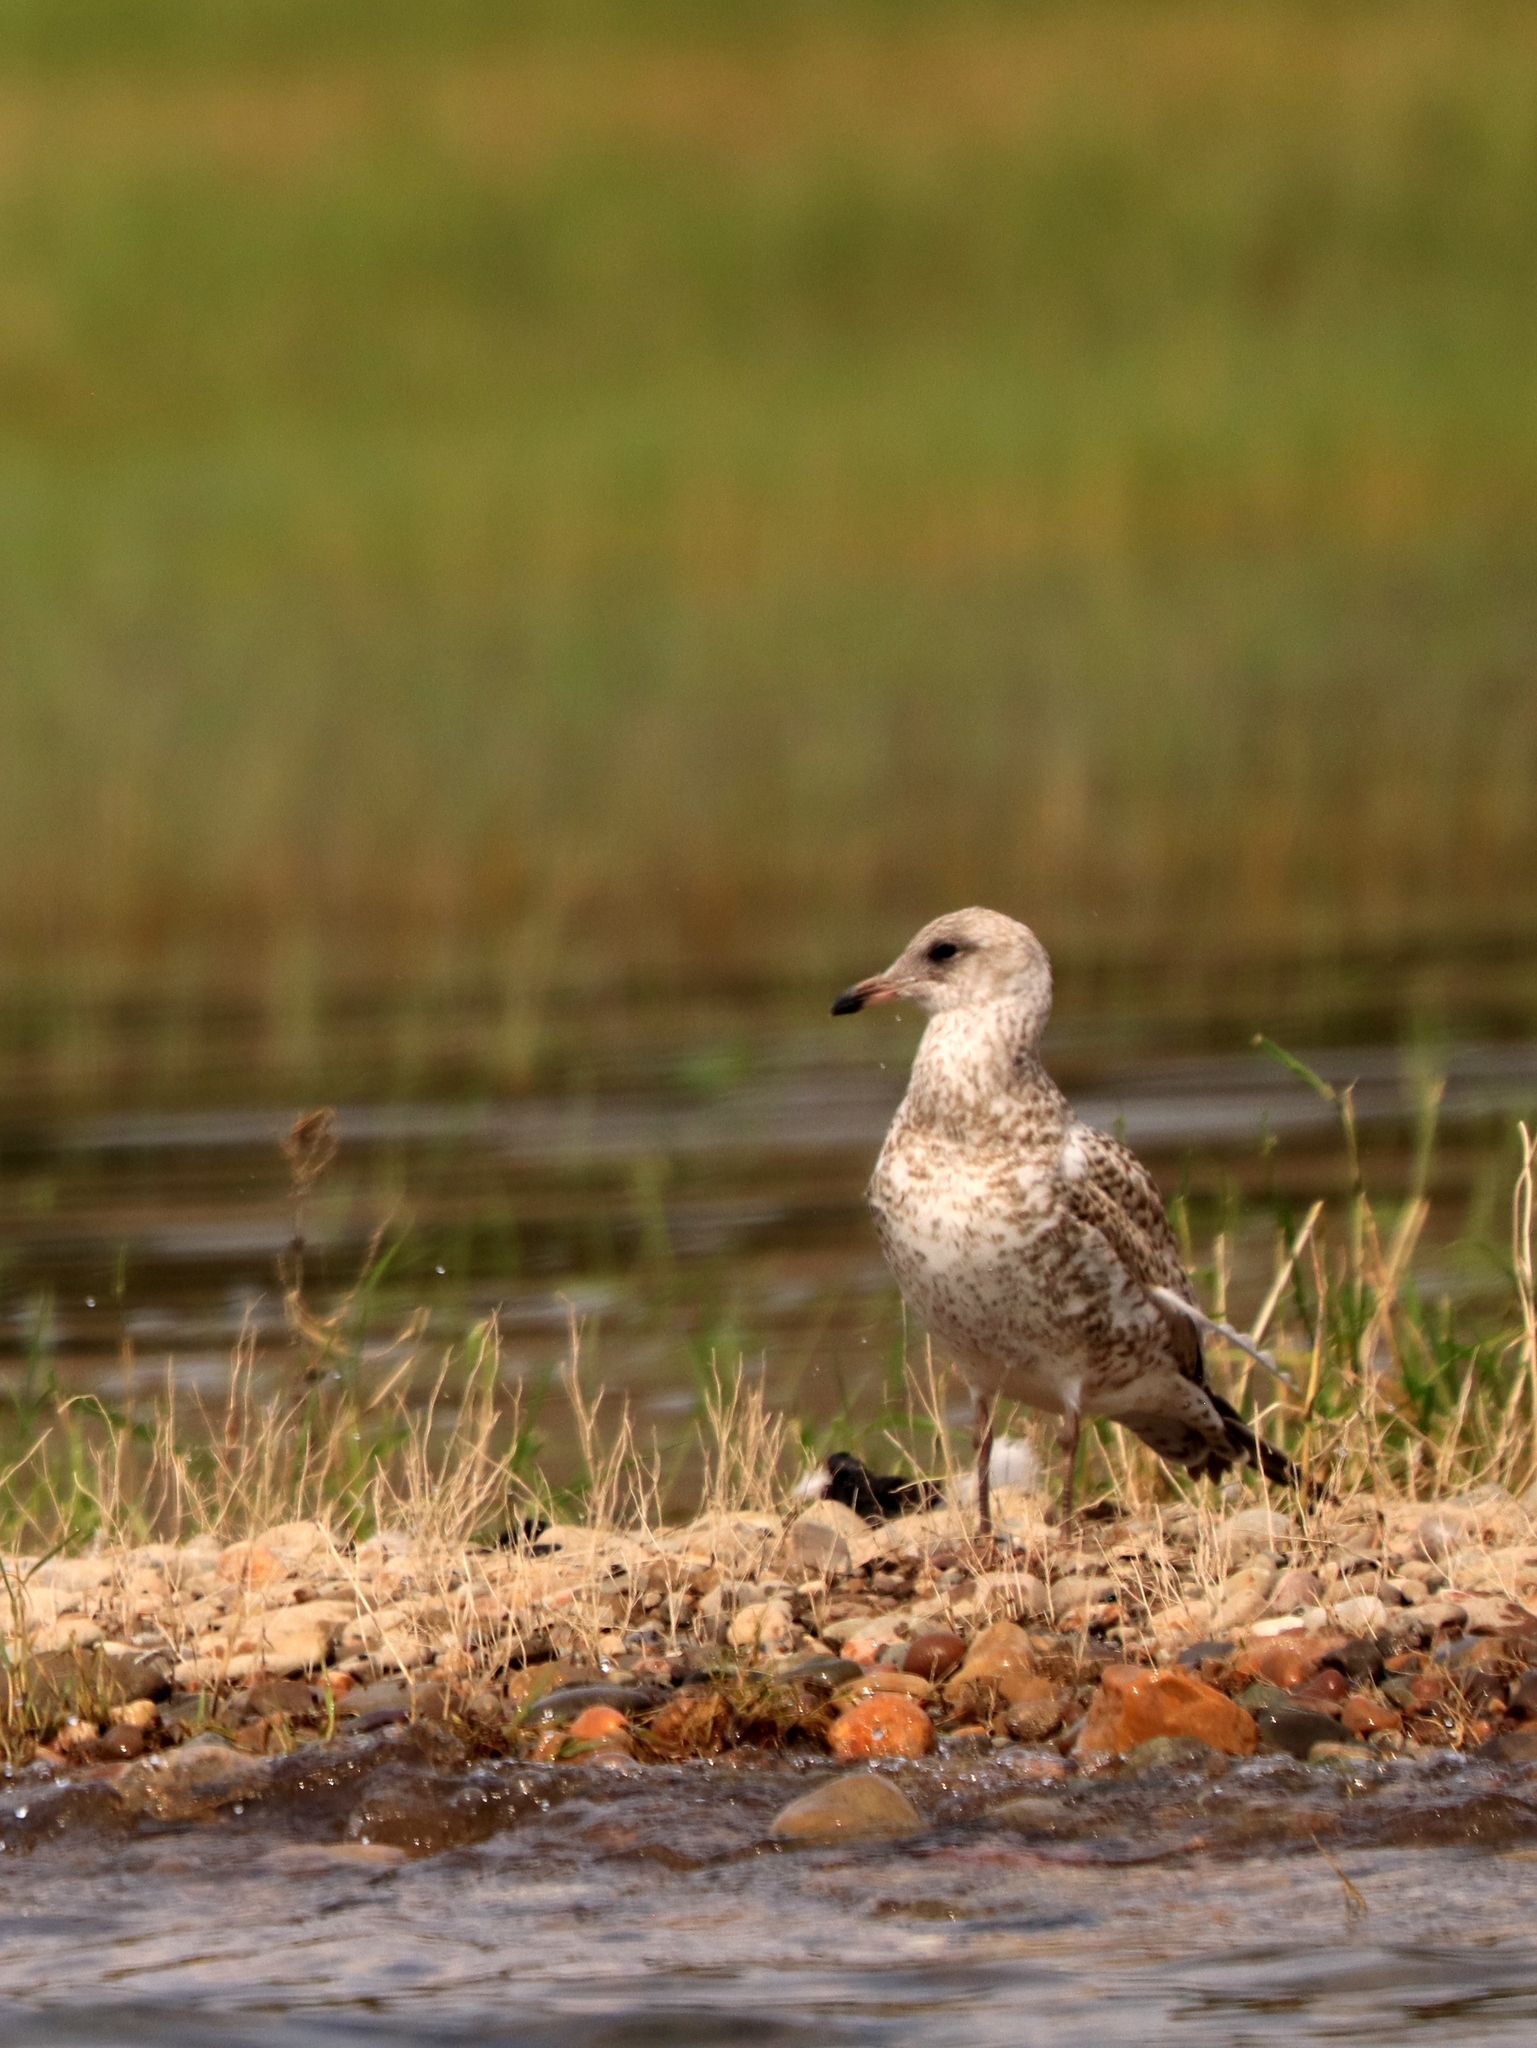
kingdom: Animalia
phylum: Chordata
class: Aves
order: Charadriiformes
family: Laridae
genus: Larus
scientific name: Larus delawarensis
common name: Ring-billed gull
